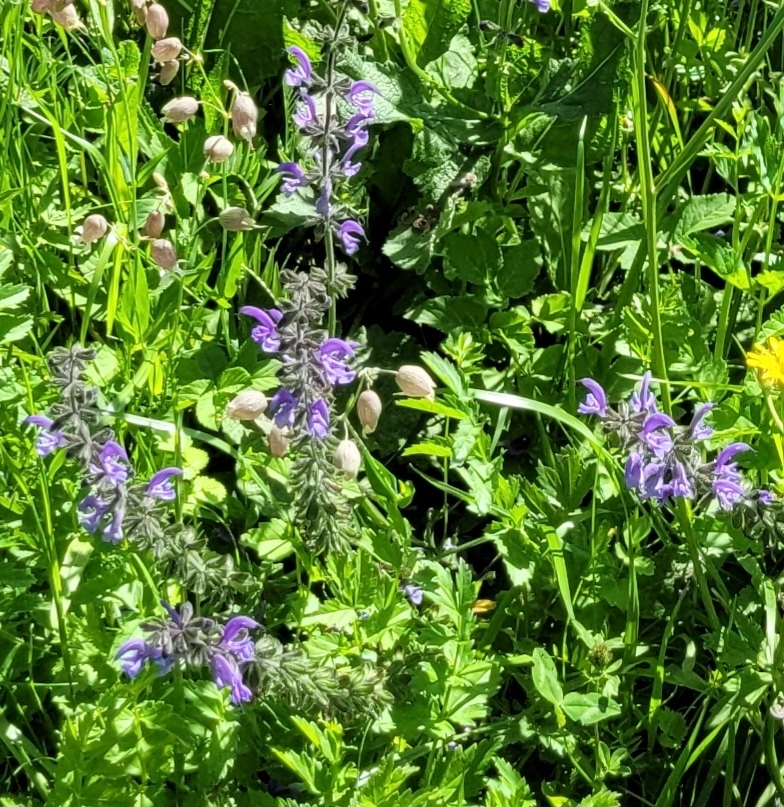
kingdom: Plantae
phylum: Tracheophyta
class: Magnoliopsida
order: Lamiales
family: Lamiaceae
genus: Salvia
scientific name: Salvia pratensis
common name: Meadow sage
